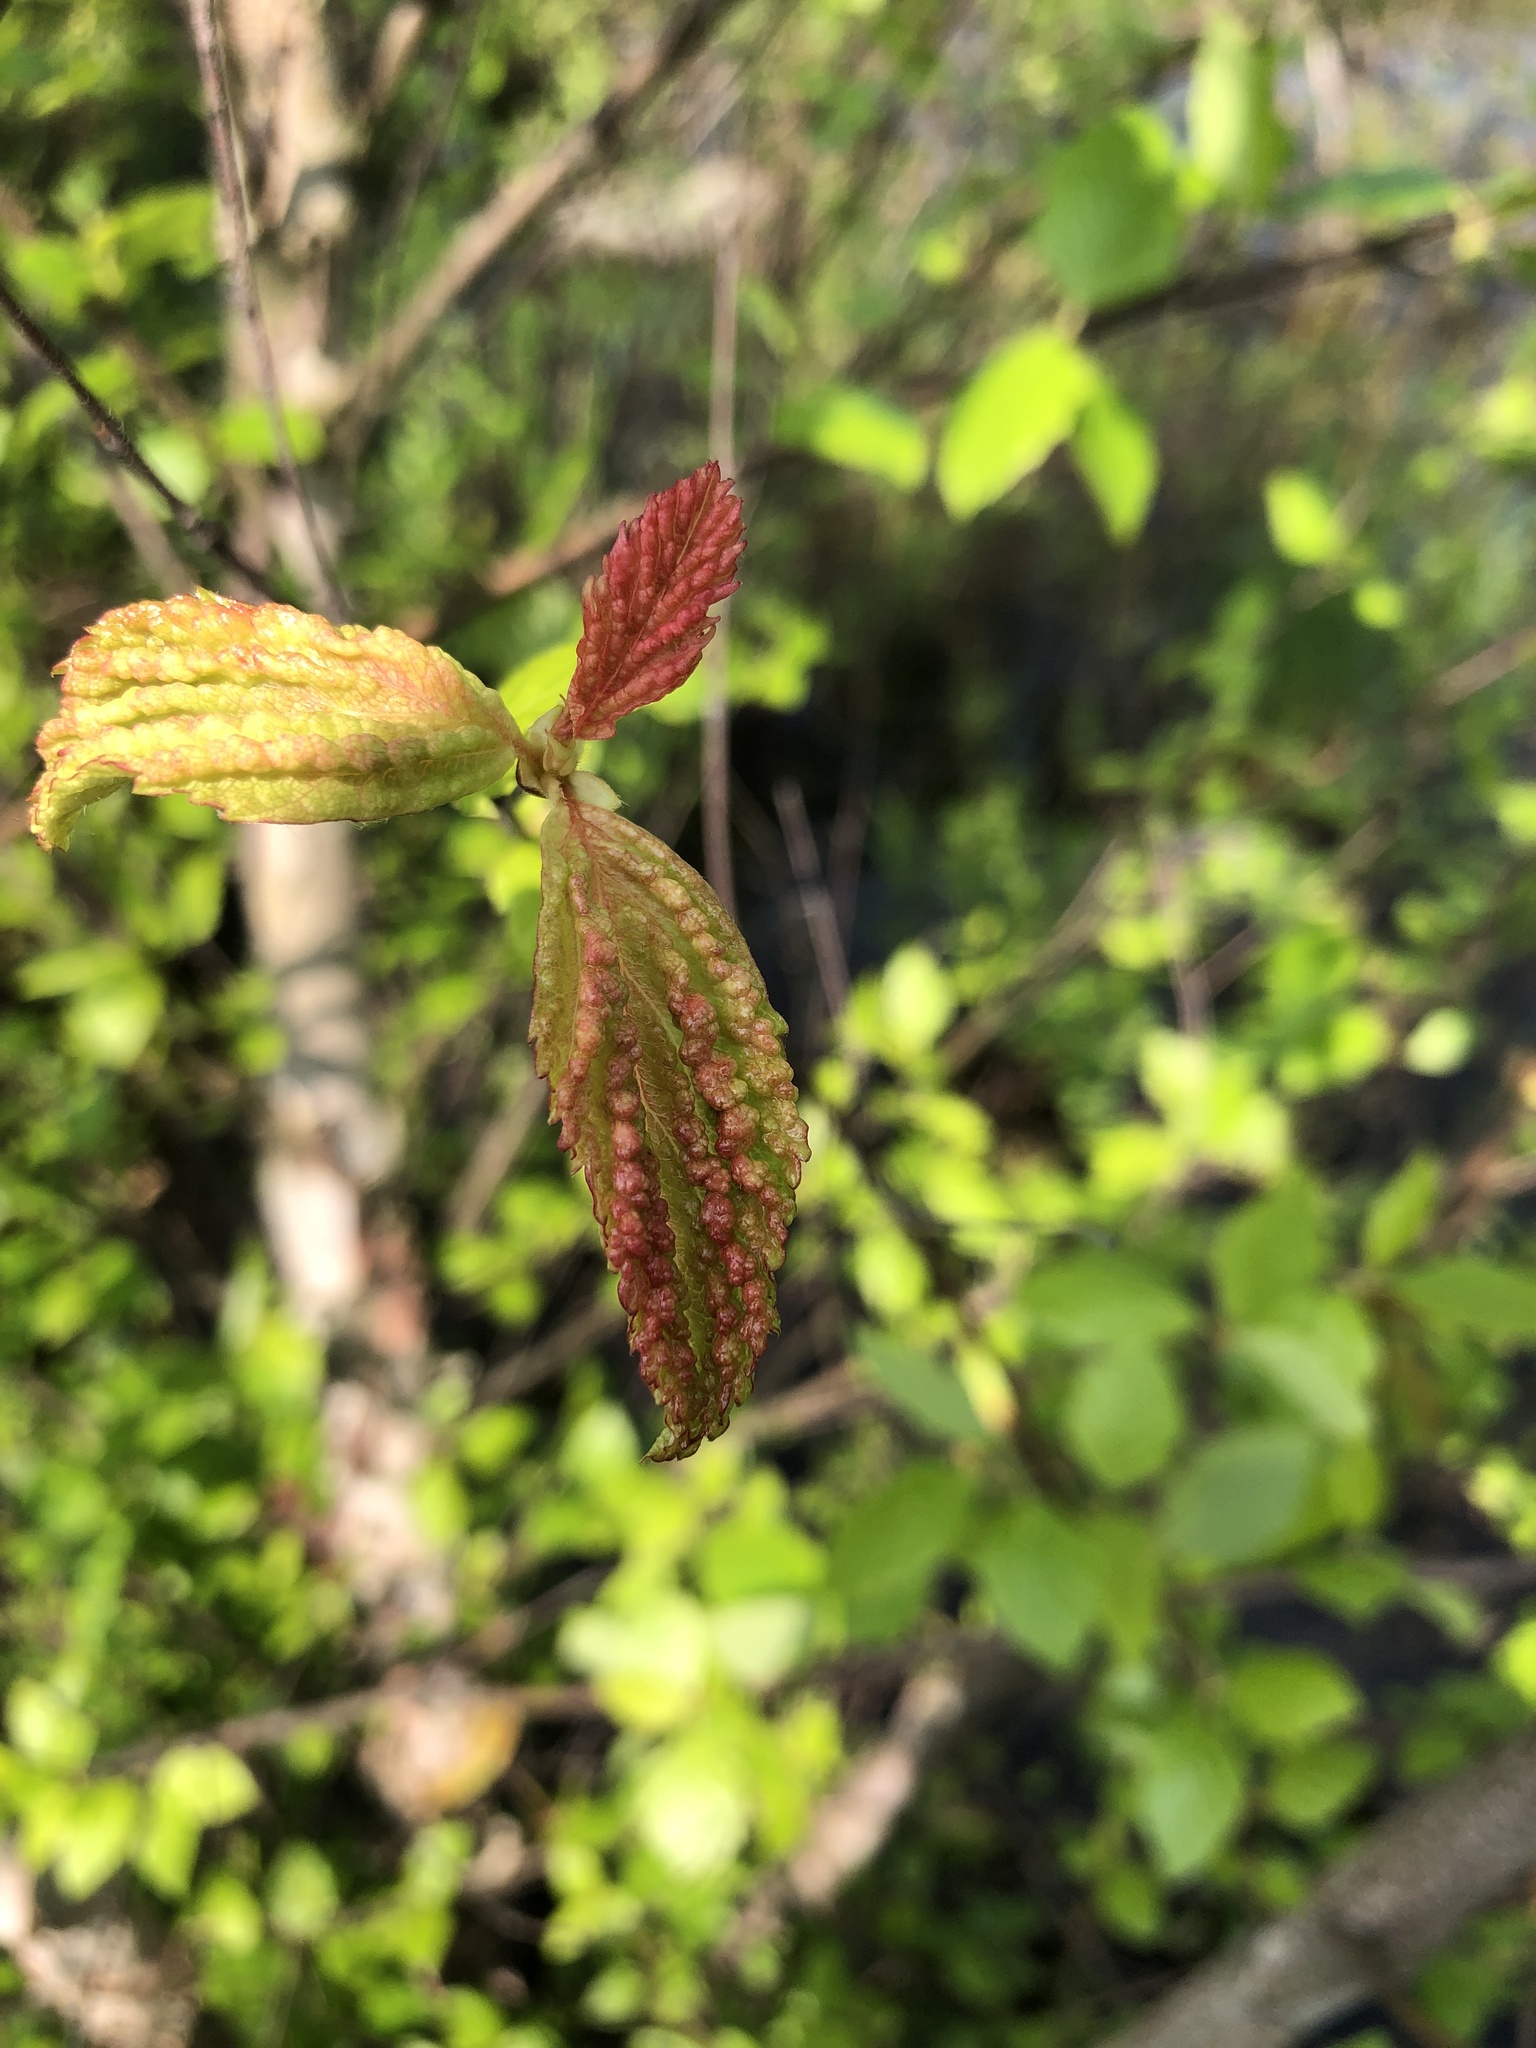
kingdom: Animalia
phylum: Arthropoda
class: Insecta
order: Hemiptera
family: Aphididae
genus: Hamamelistes
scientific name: Hamamelistes spinosus
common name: Witch hazel gall aphid
